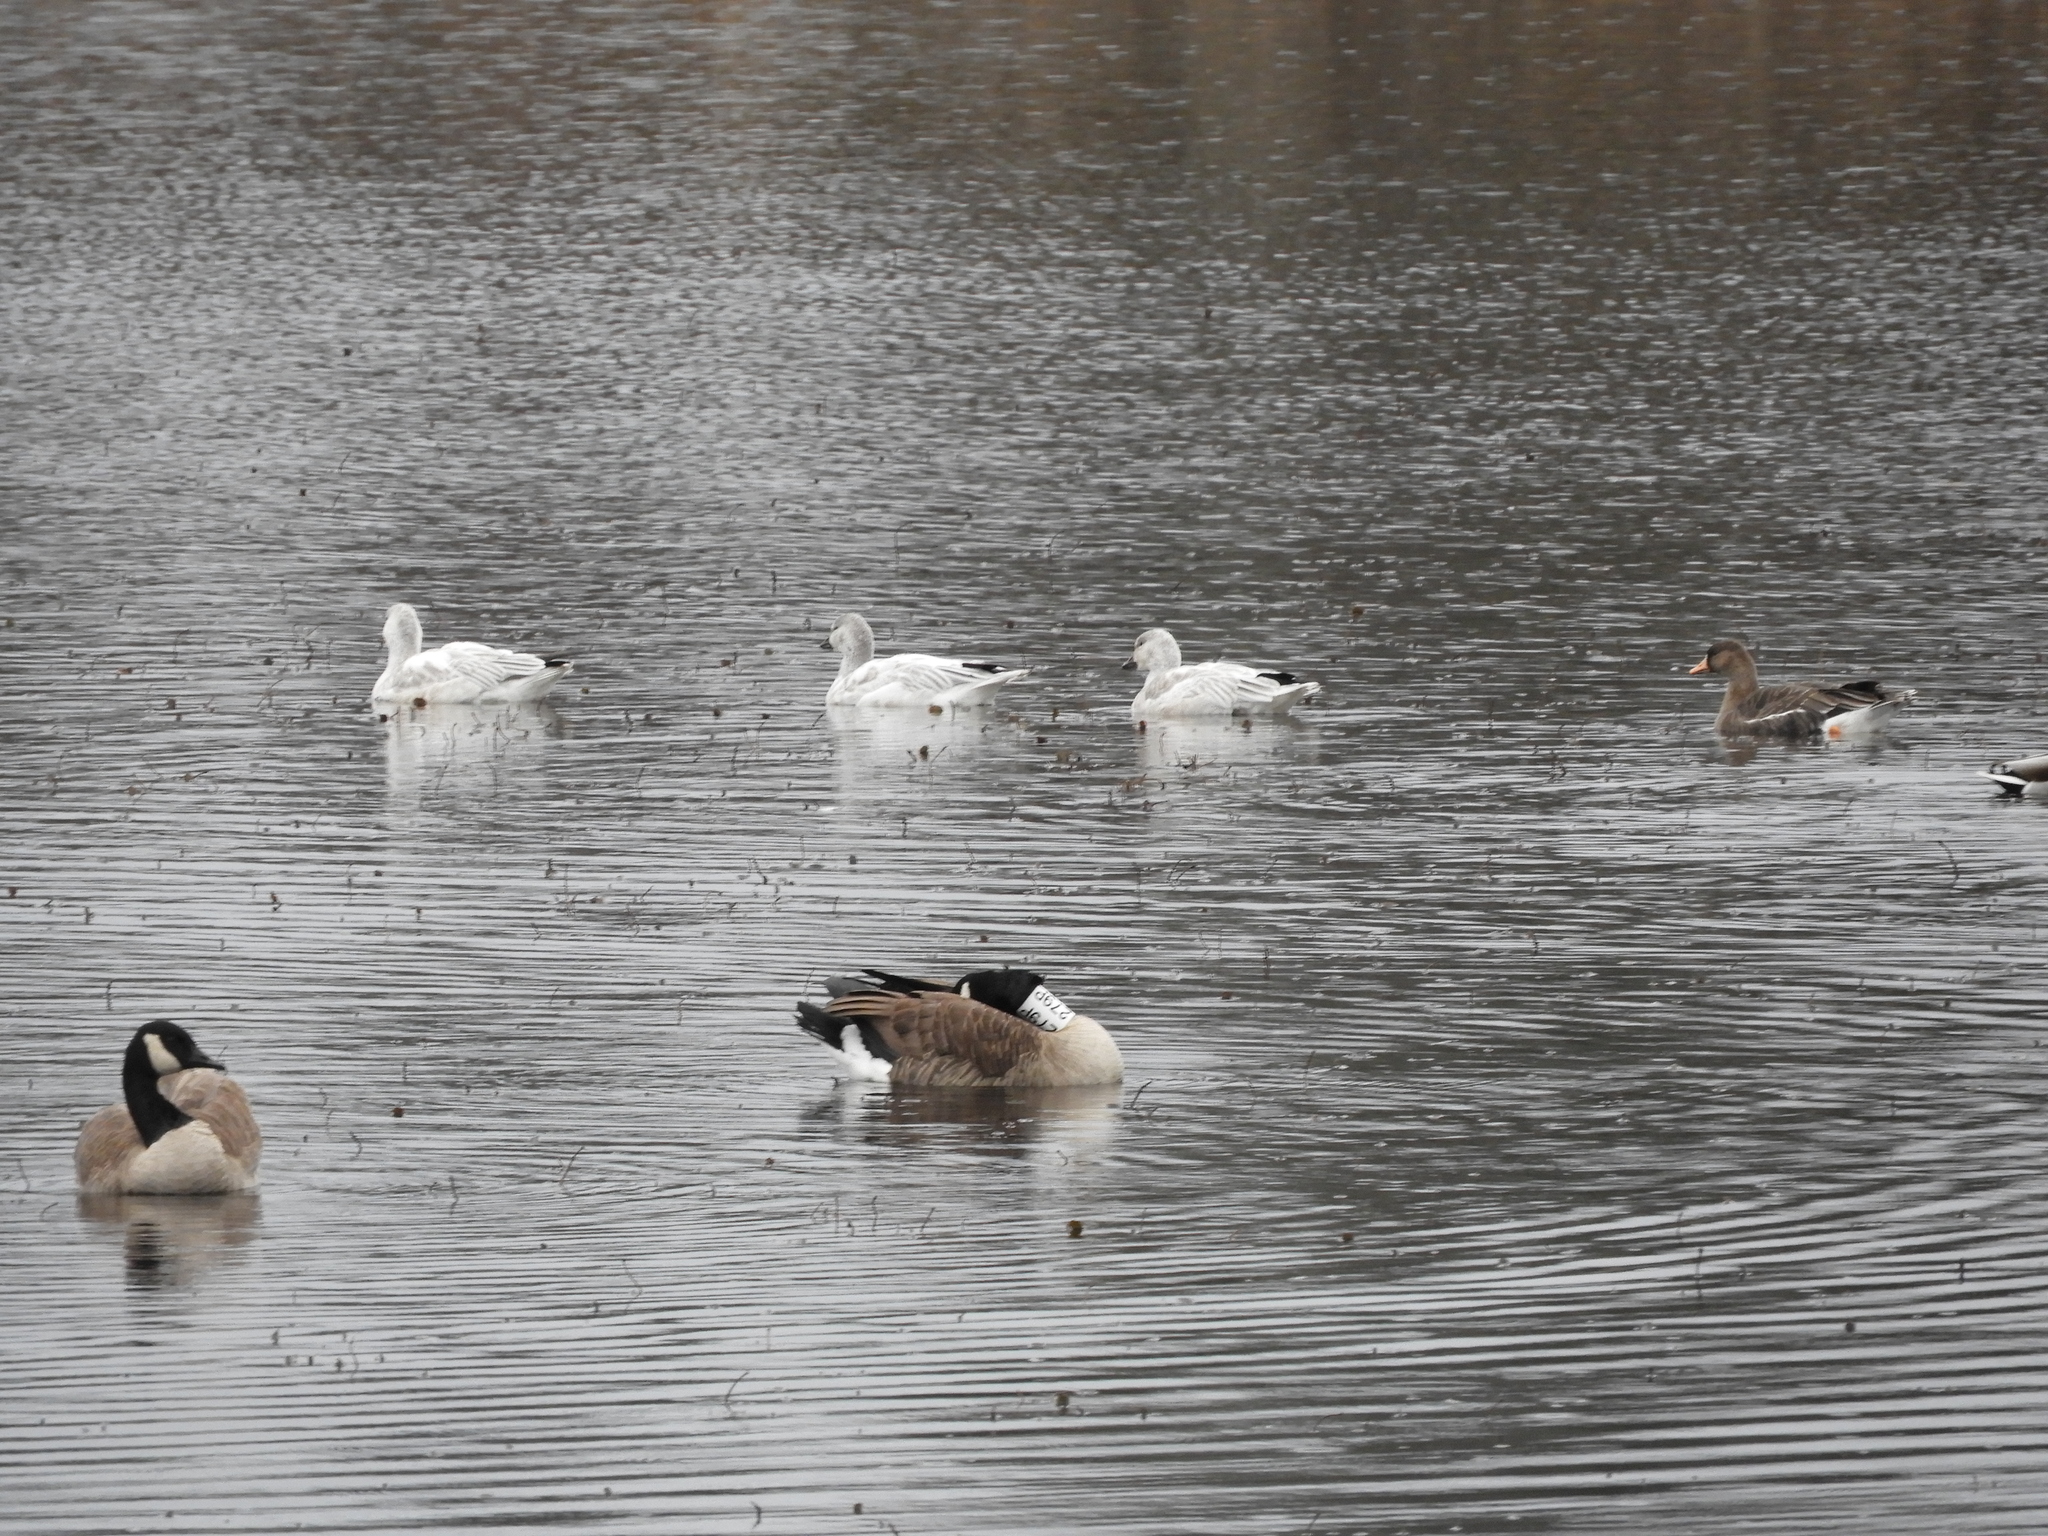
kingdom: Animalia
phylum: Chordata
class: Aves
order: Anseriformes
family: Anatidae
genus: Anser
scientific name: Anser caerulescens
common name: Snow goose
